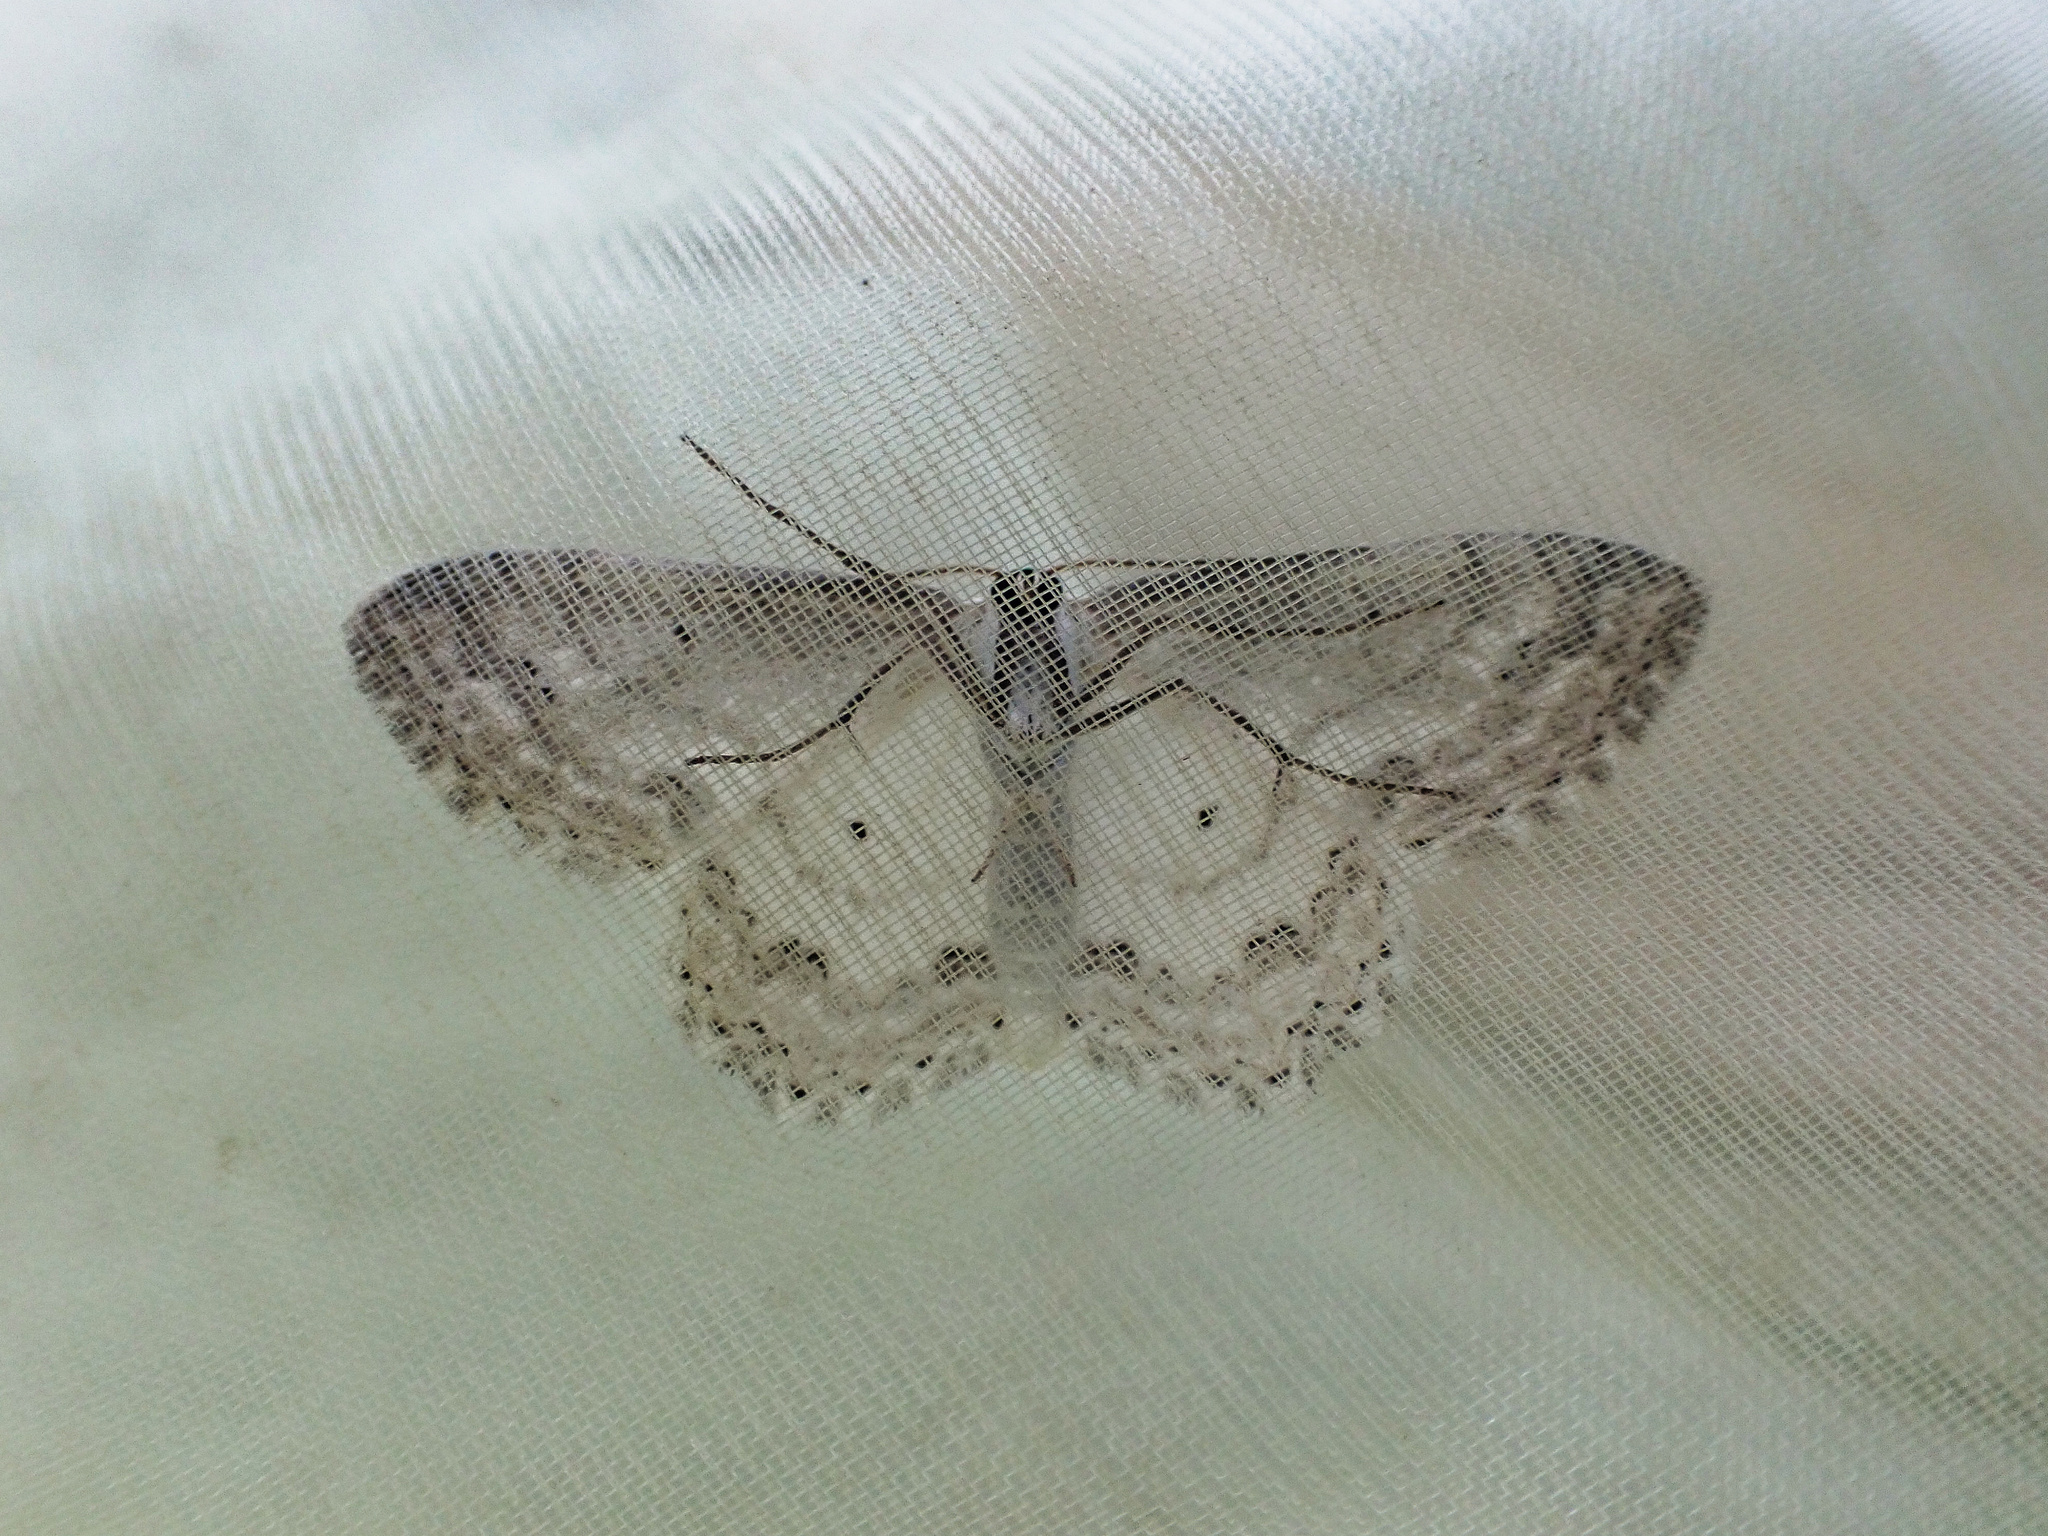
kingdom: Animalia
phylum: Arthropoda
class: Insecta
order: Lepidoptera
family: Geometridae
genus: Scopula
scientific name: Scopula ornata
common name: Lace border
